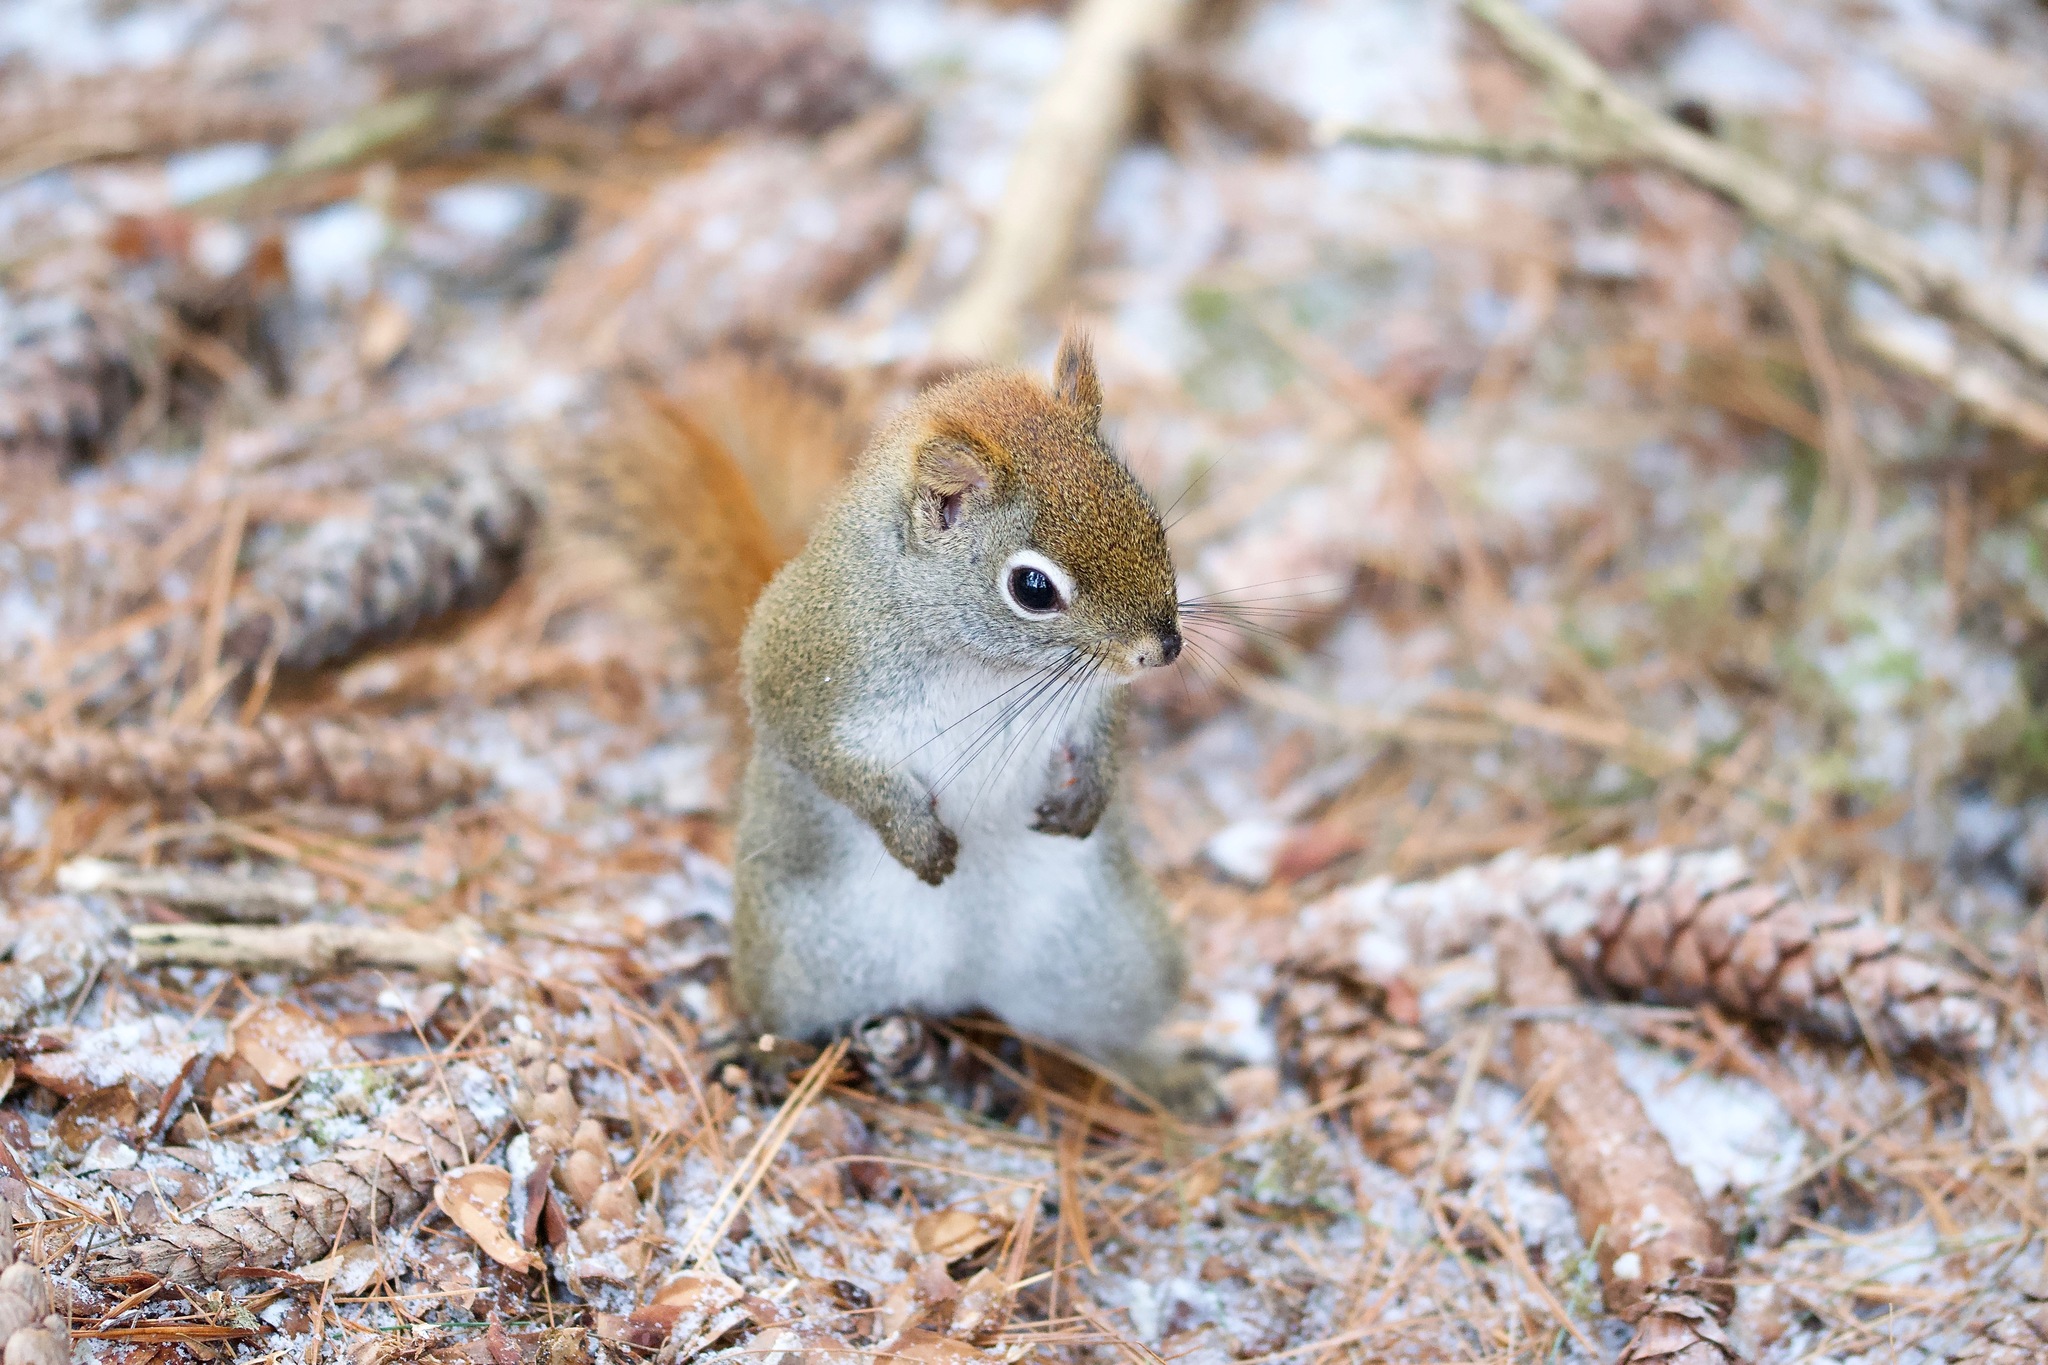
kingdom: Animalia
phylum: Chordata
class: Mammalia
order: Rodentia
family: Sciuridae
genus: Tamiasciurus
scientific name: Tamiasciurus hudsonicus
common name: Red squirrel
